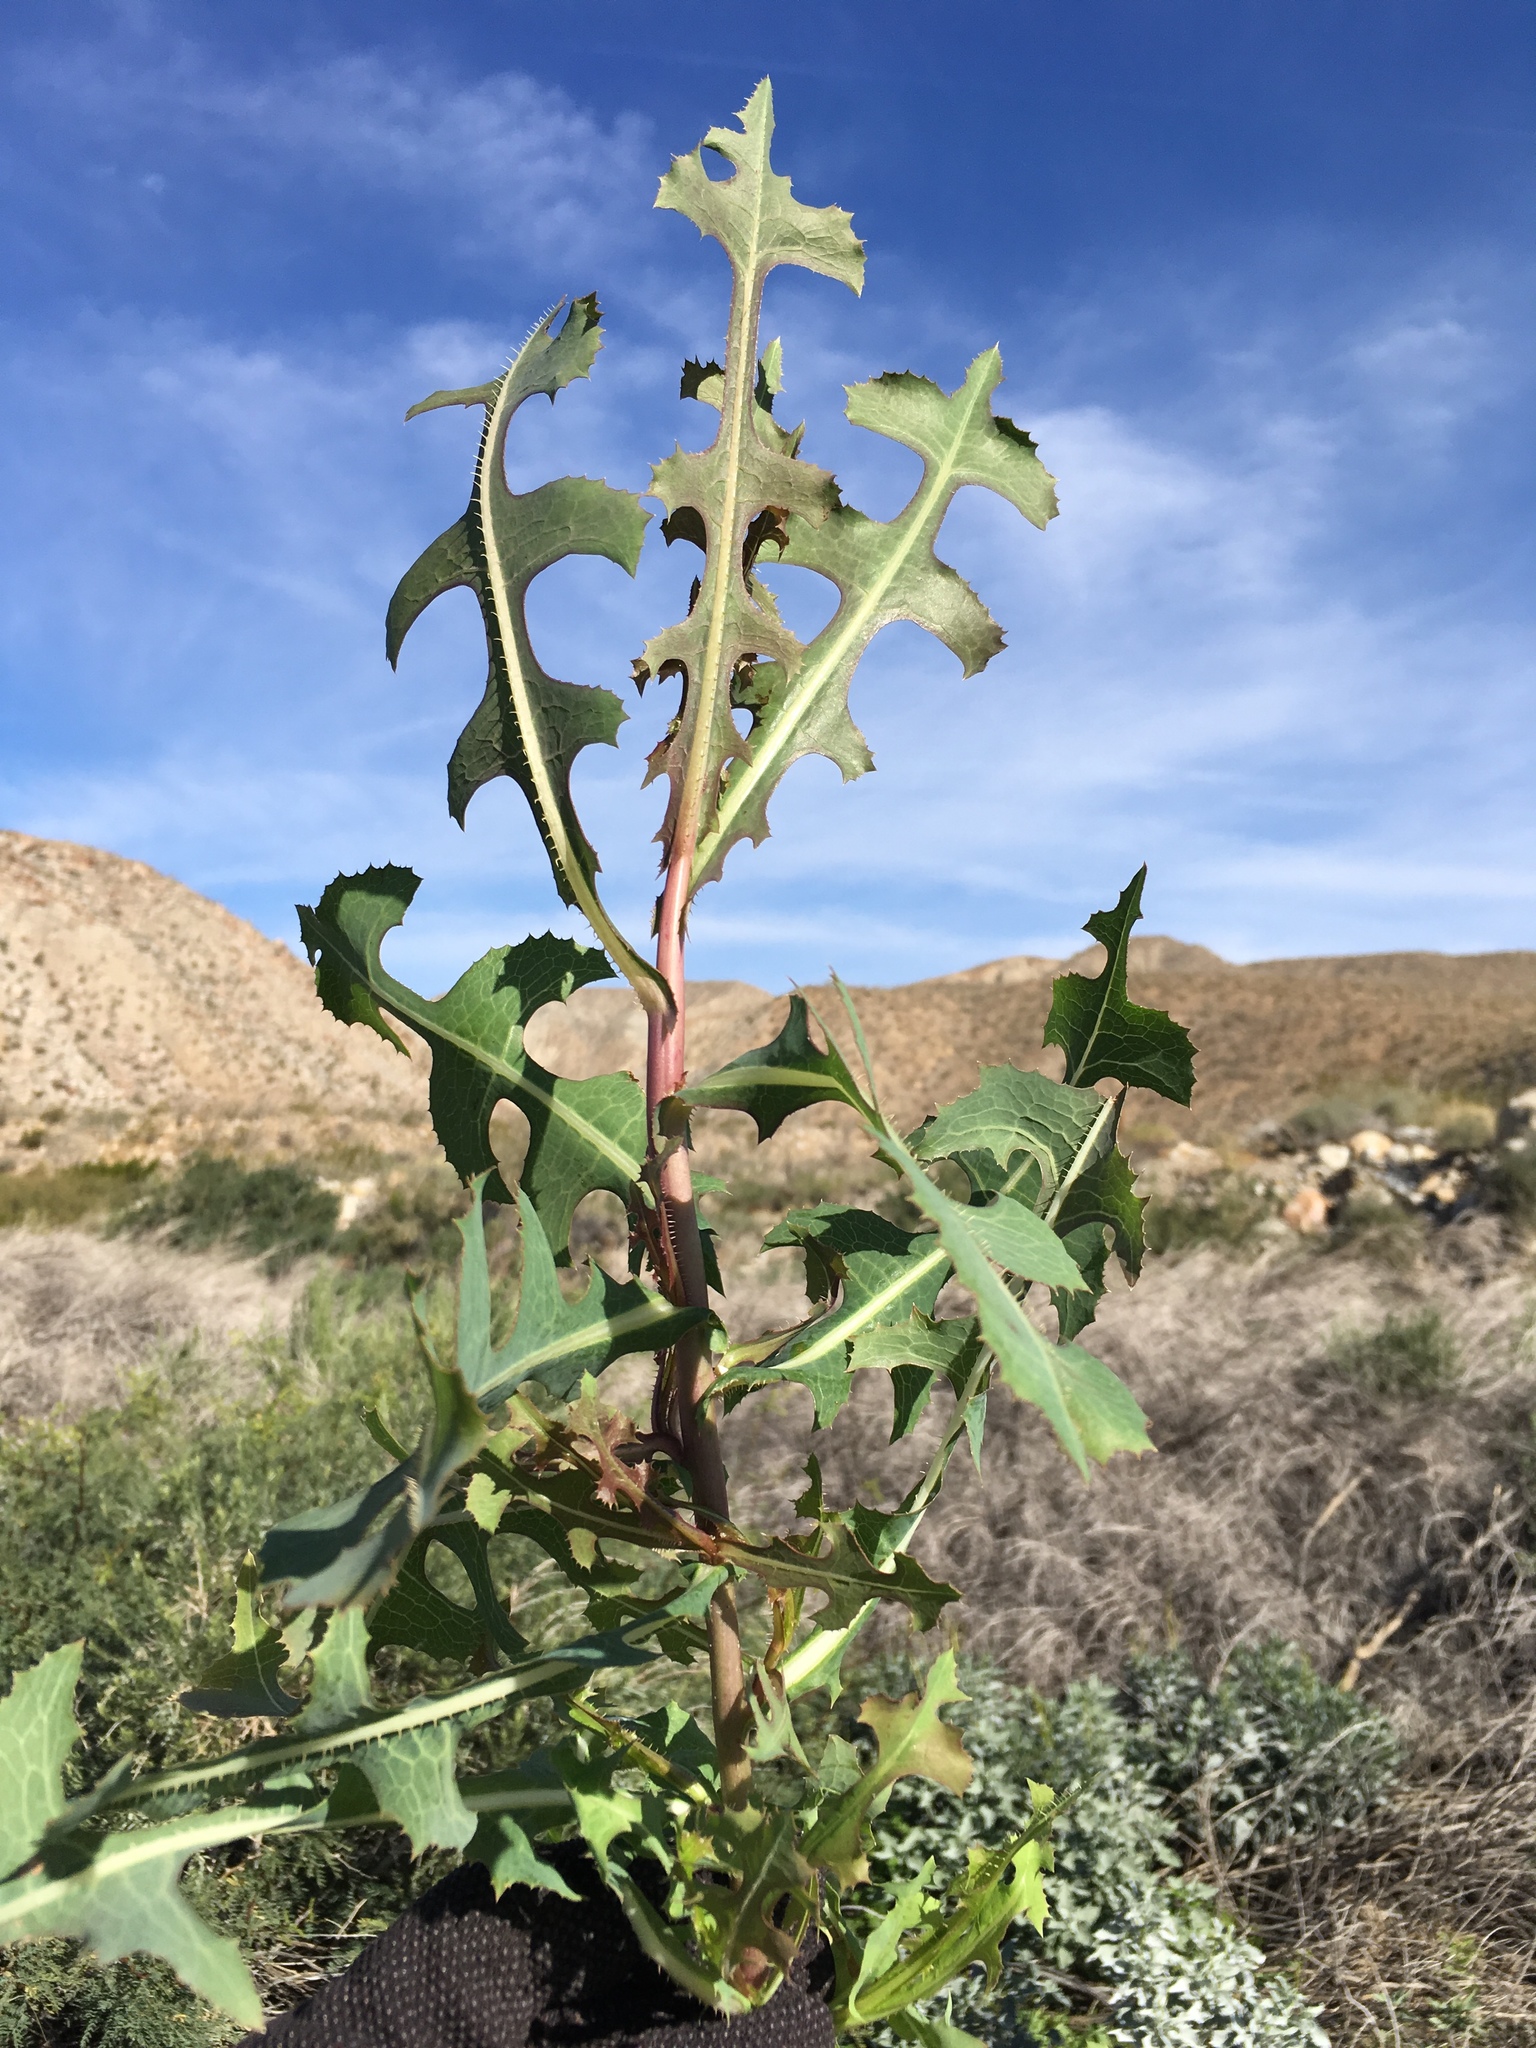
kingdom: Plantae
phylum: Tracheophyta
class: Magnoliopsida
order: Asterales
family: Asteraceae
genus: Lactuca
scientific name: Lactuca serriola
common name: Prickly lettuce
